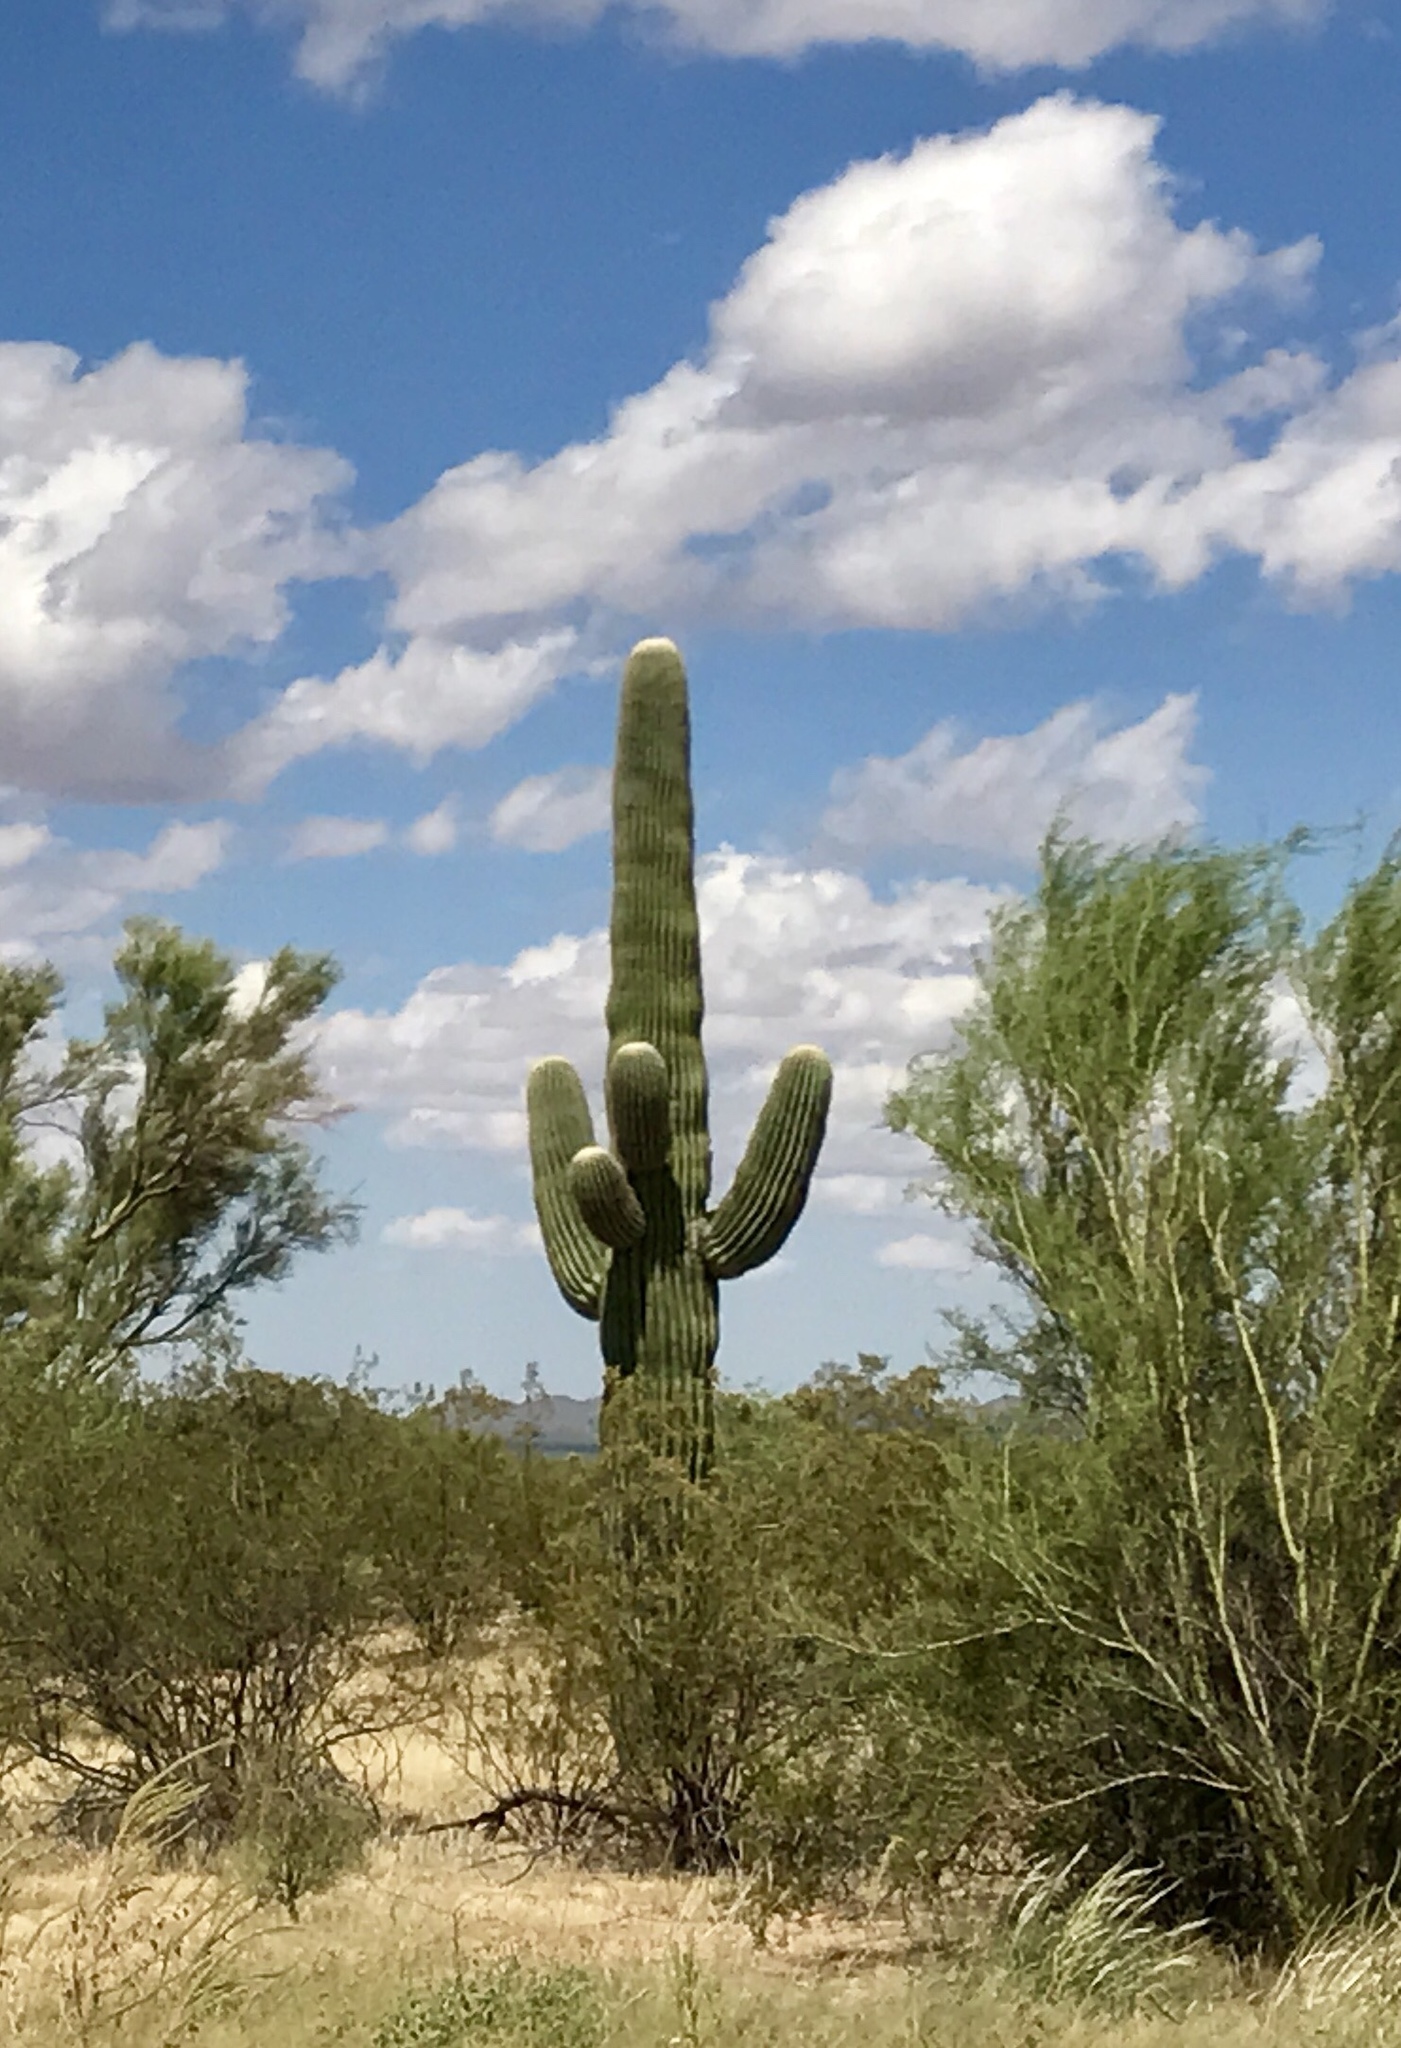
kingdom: Plantae
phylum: Tracheophyta
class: Magnoliopsida
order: Caryophyllales
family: Cactaceae
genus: Carnegiea
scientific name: Carnegiea gigantea
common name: Saguaro
